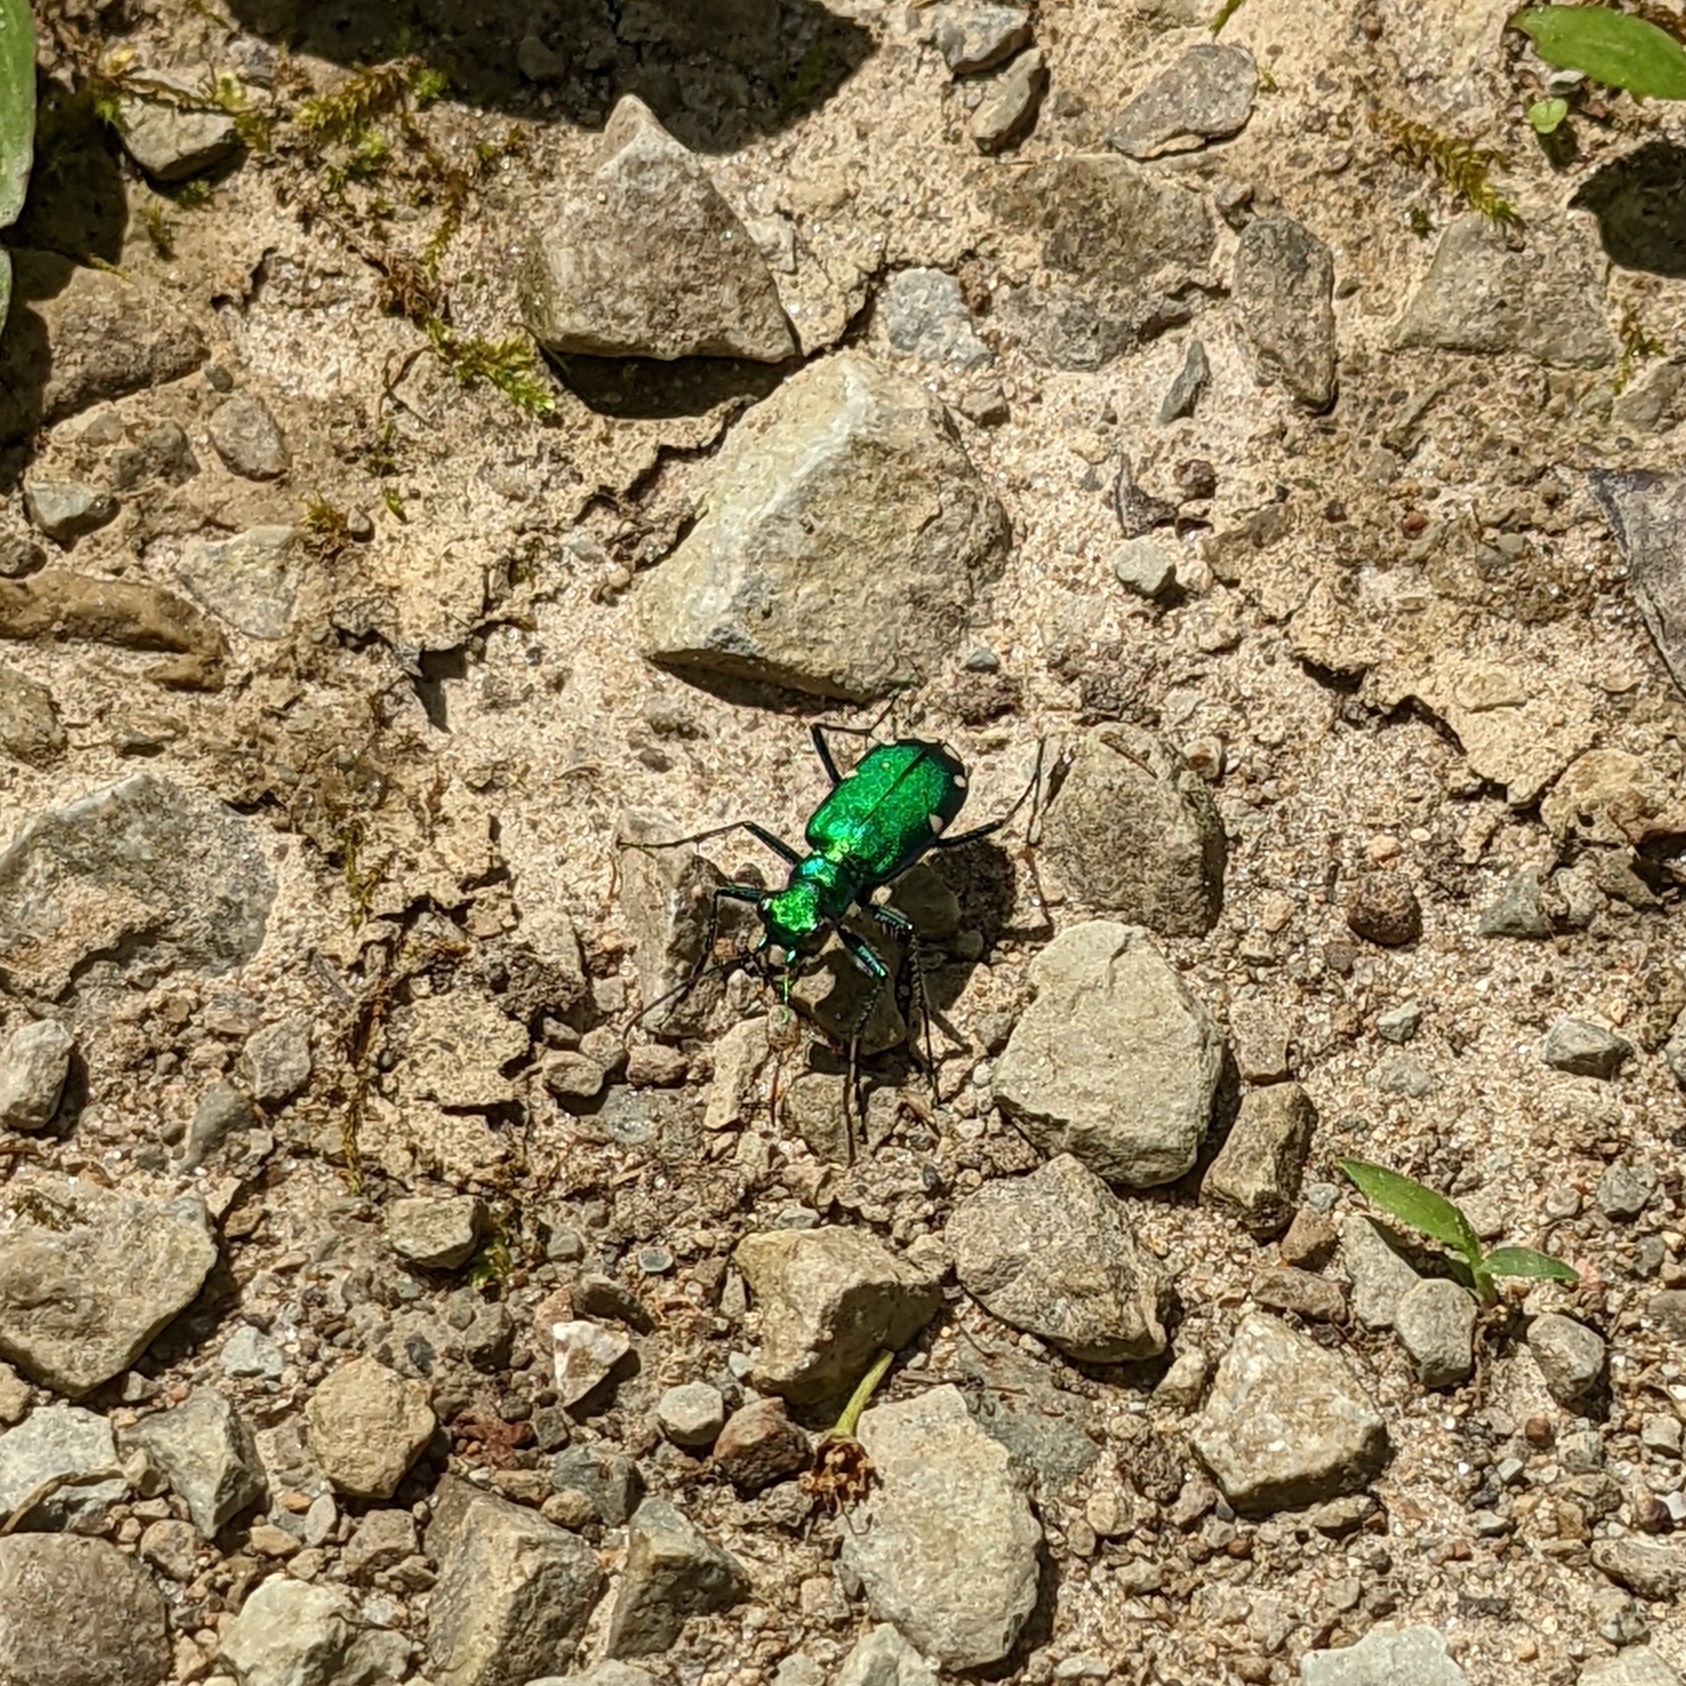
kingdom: Animalia
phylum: Arthropoda
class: Insecta
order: Coleoptera
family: Carabidae
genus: Cicindela
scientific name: Cicindela sexguttata
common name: Six-spotted tiger beetle
